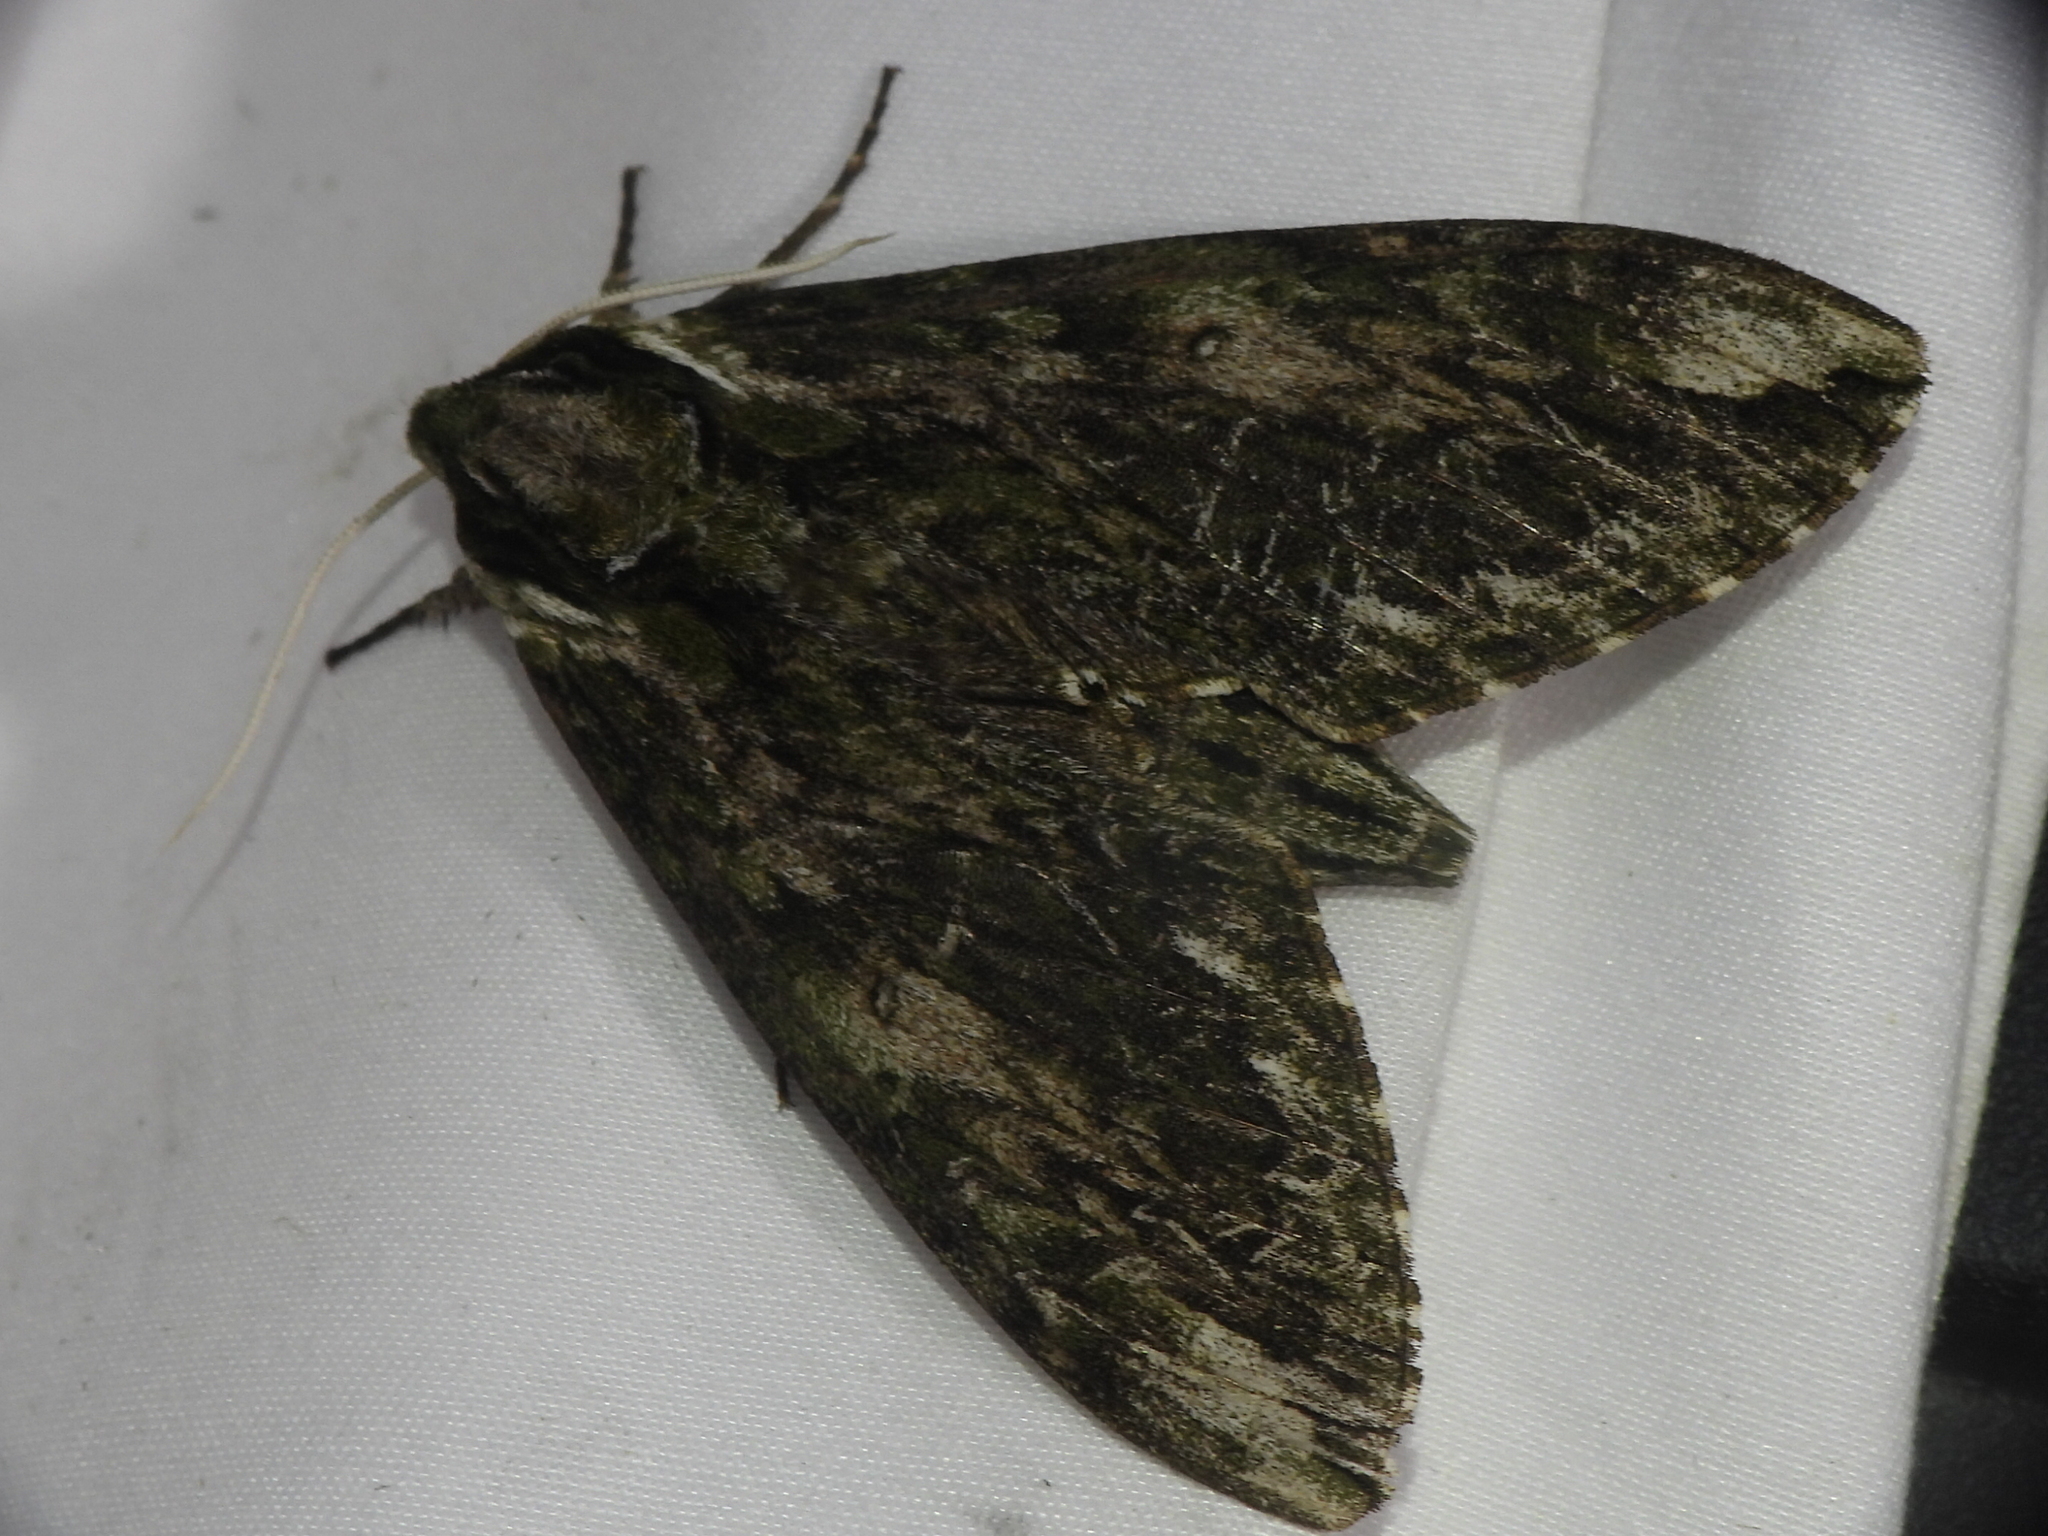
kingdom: Animalia
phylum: Arthropoda
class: Insecta
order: Lepidoptera
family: Sphingidae
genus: Ceratomia
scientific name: Ceratomia hageni
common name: Hagen's sphinx
